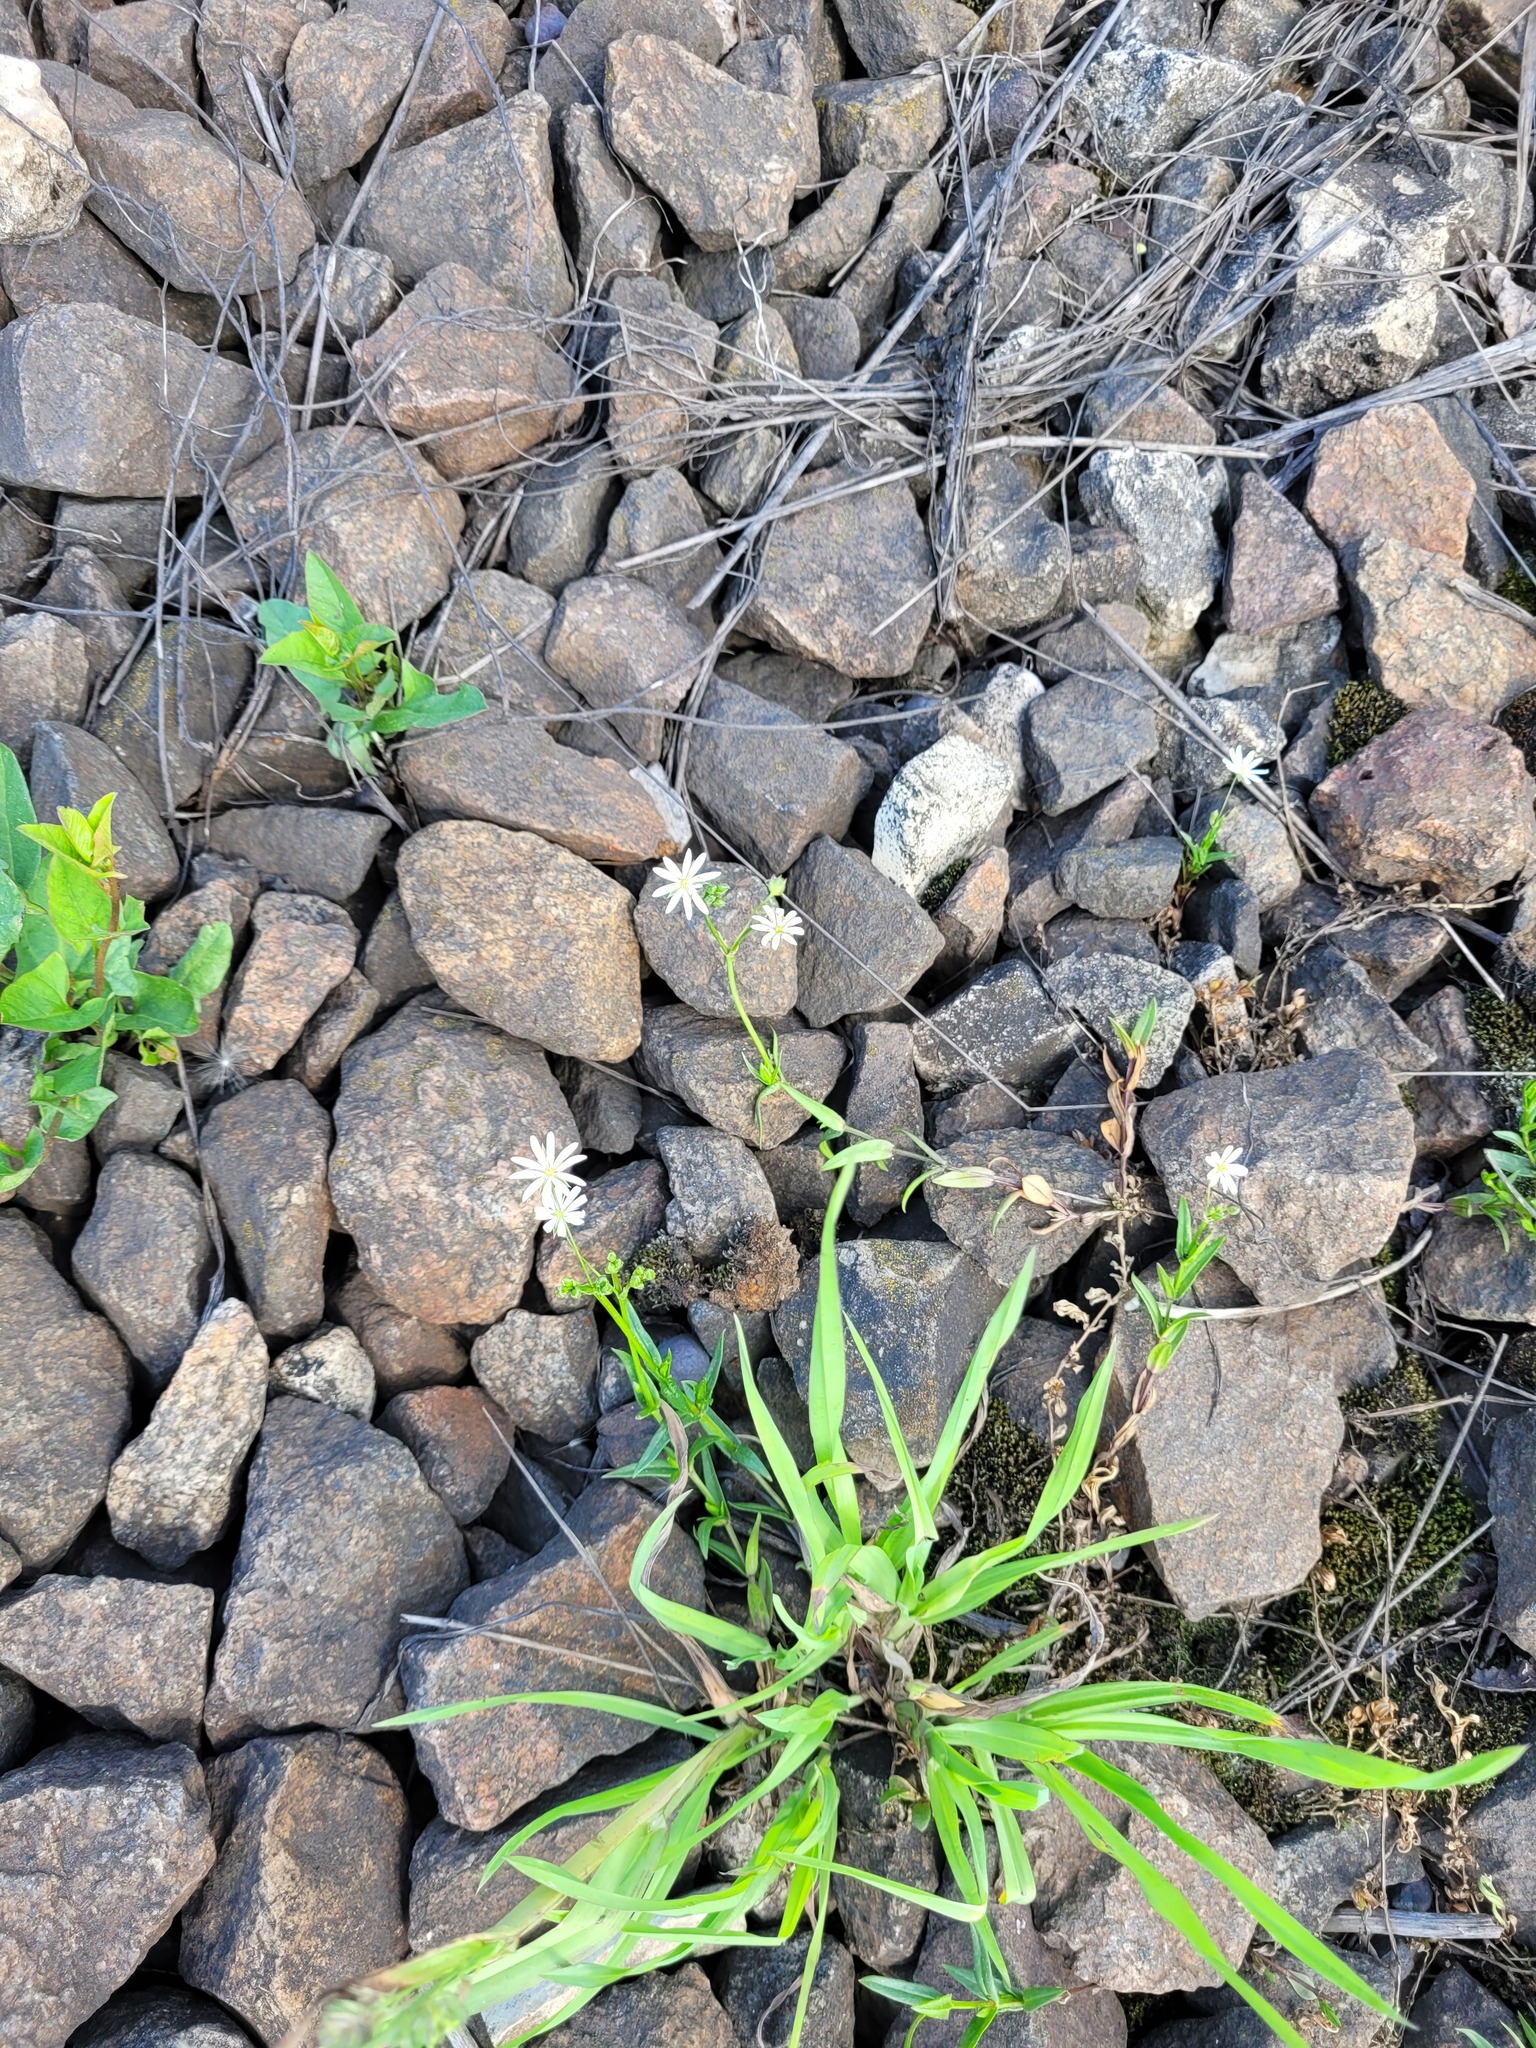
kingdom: Plantae
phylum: Tracheophyta
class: Magnoliopsida
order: Caryophyllales
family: Caryophyllaceae
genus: Stellaria
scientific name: Stellaria graminea
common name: Grass-like starwort
